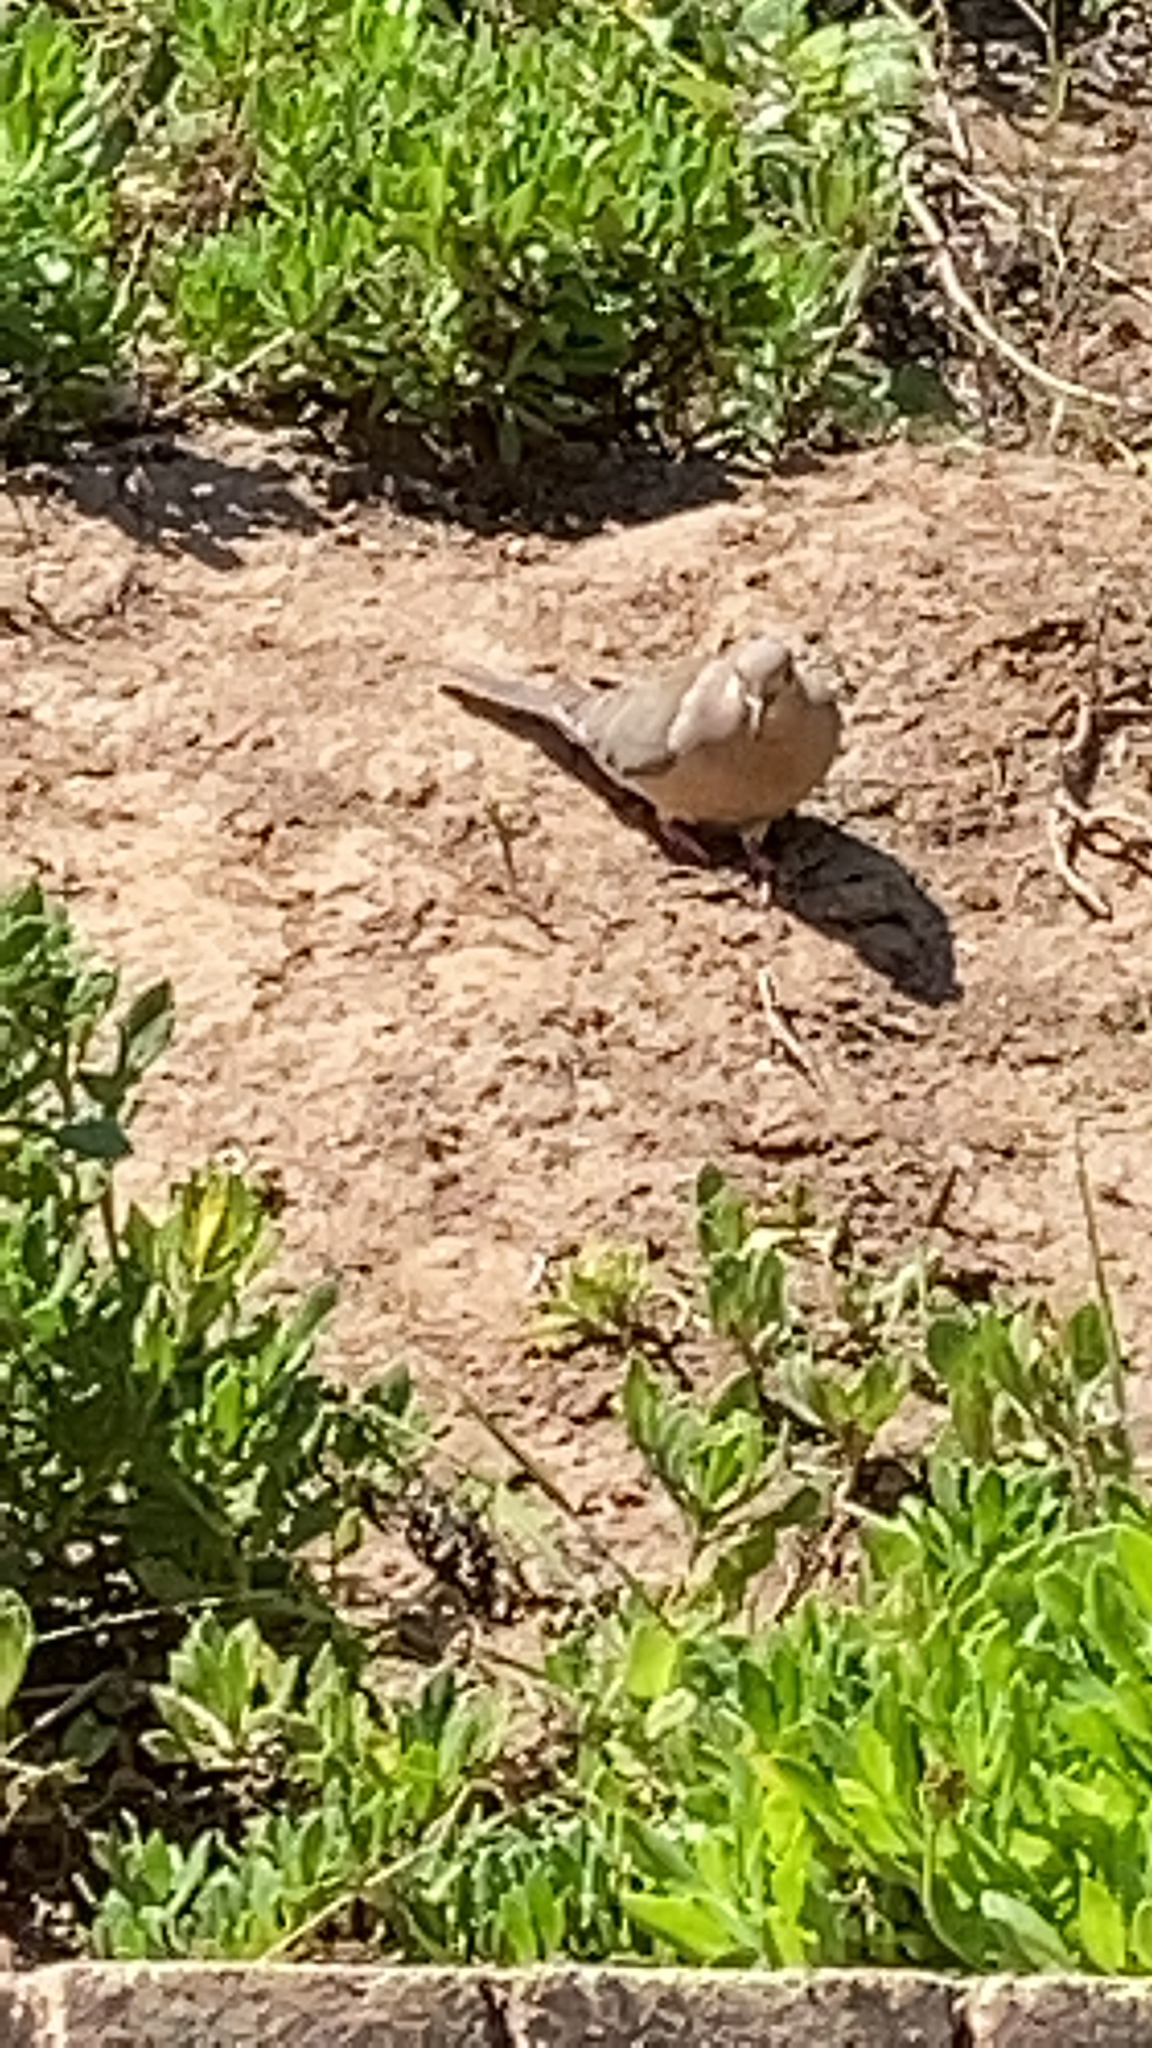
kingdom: Animalia
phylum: Chordata
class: Aves
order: Columbiformes
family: Columbidae
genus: Zenaida
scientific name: Zenaida macroura
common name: Mourning dove
